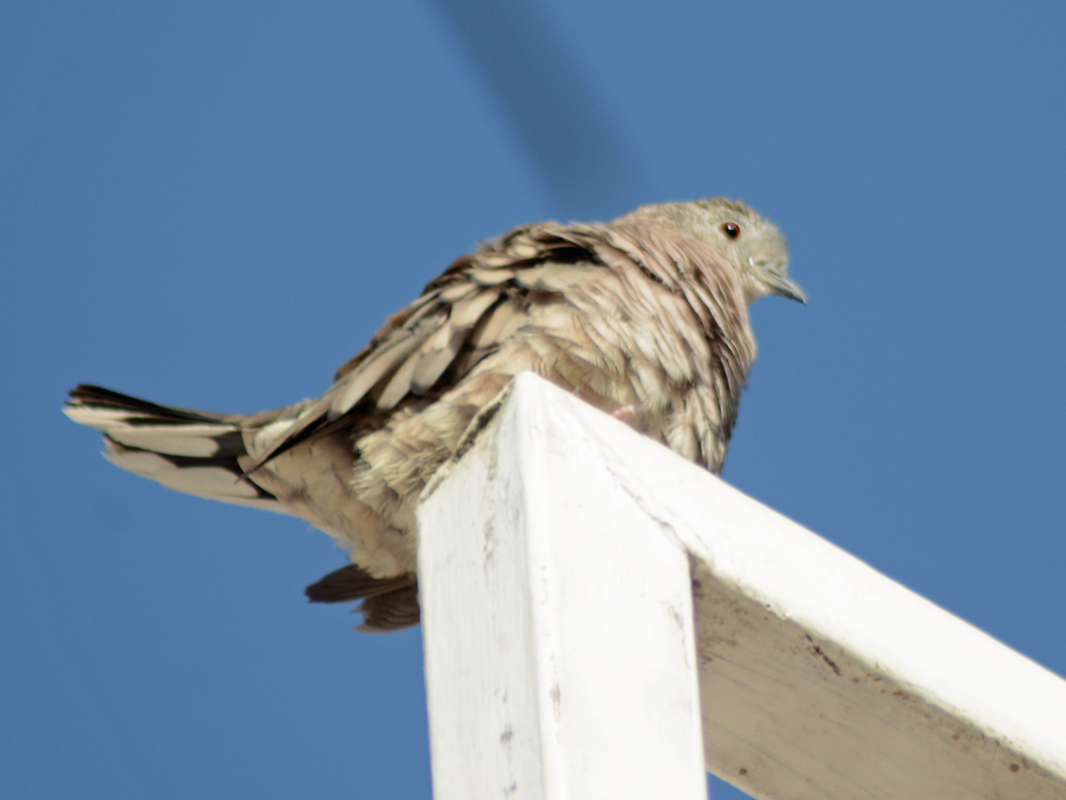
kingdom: Animalia
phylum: Chordata
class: Aves
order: Columbiformes
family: Columbidae
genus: Columbina
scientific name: Columbina inca
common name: Inca dove
